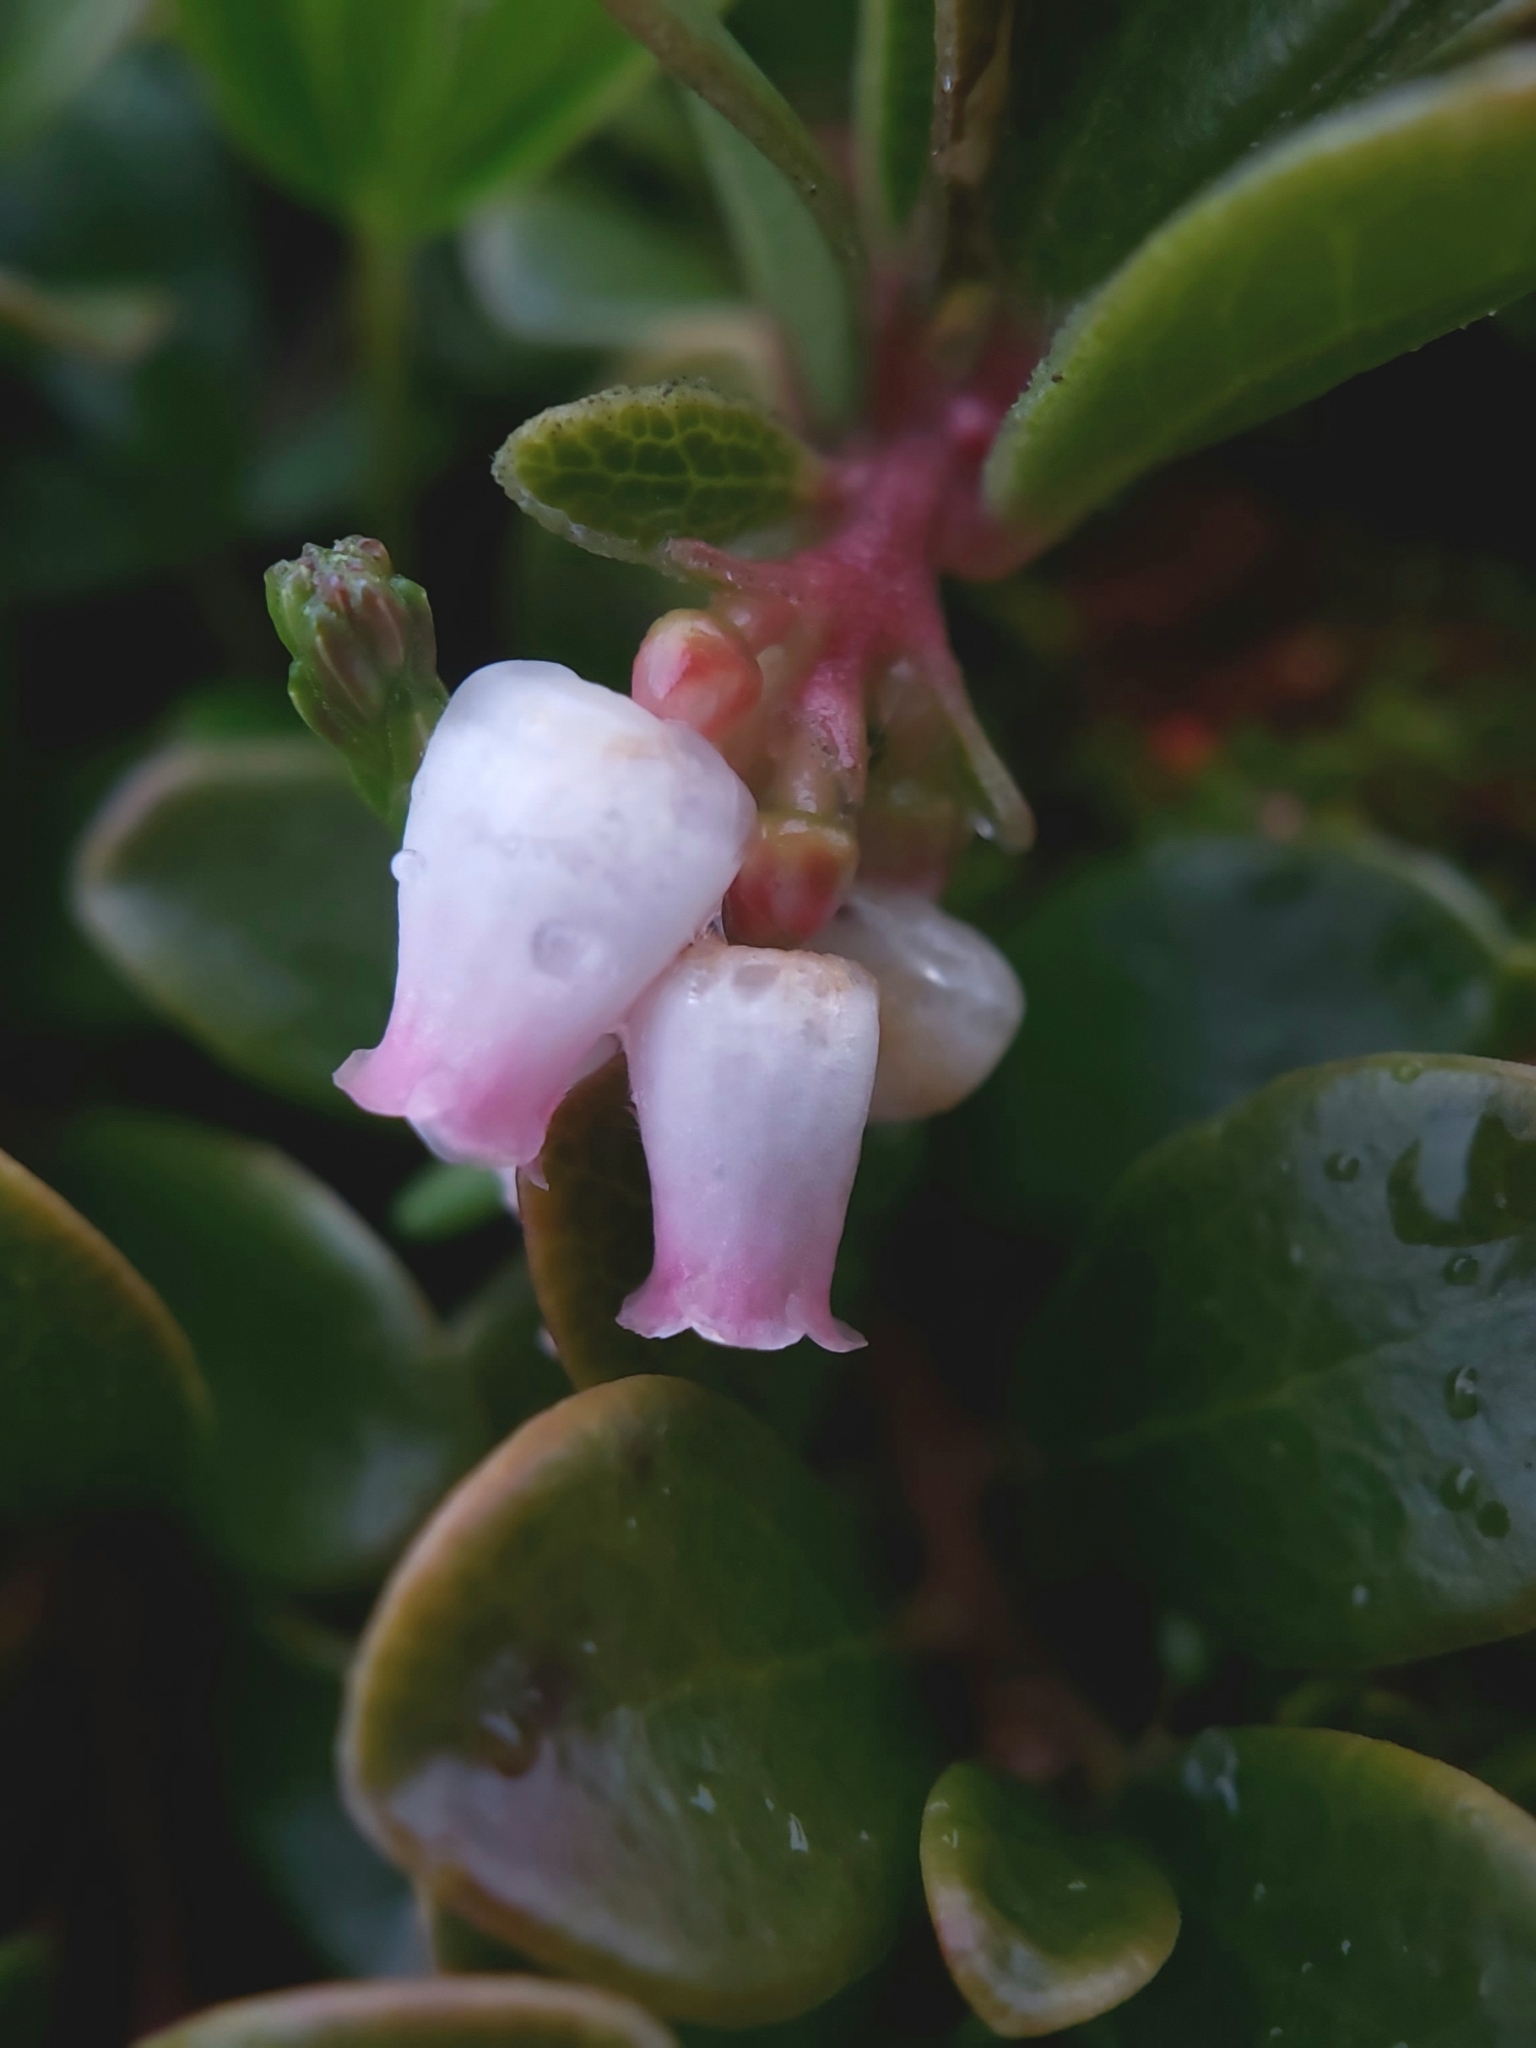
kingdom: Plantae
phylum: Tracheophyta
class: Magnoliopsida
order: Ericales
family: Ericaceae
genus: Arctostaphylos
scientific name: Arctostaphylos uva-ursi
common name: Bearberry
